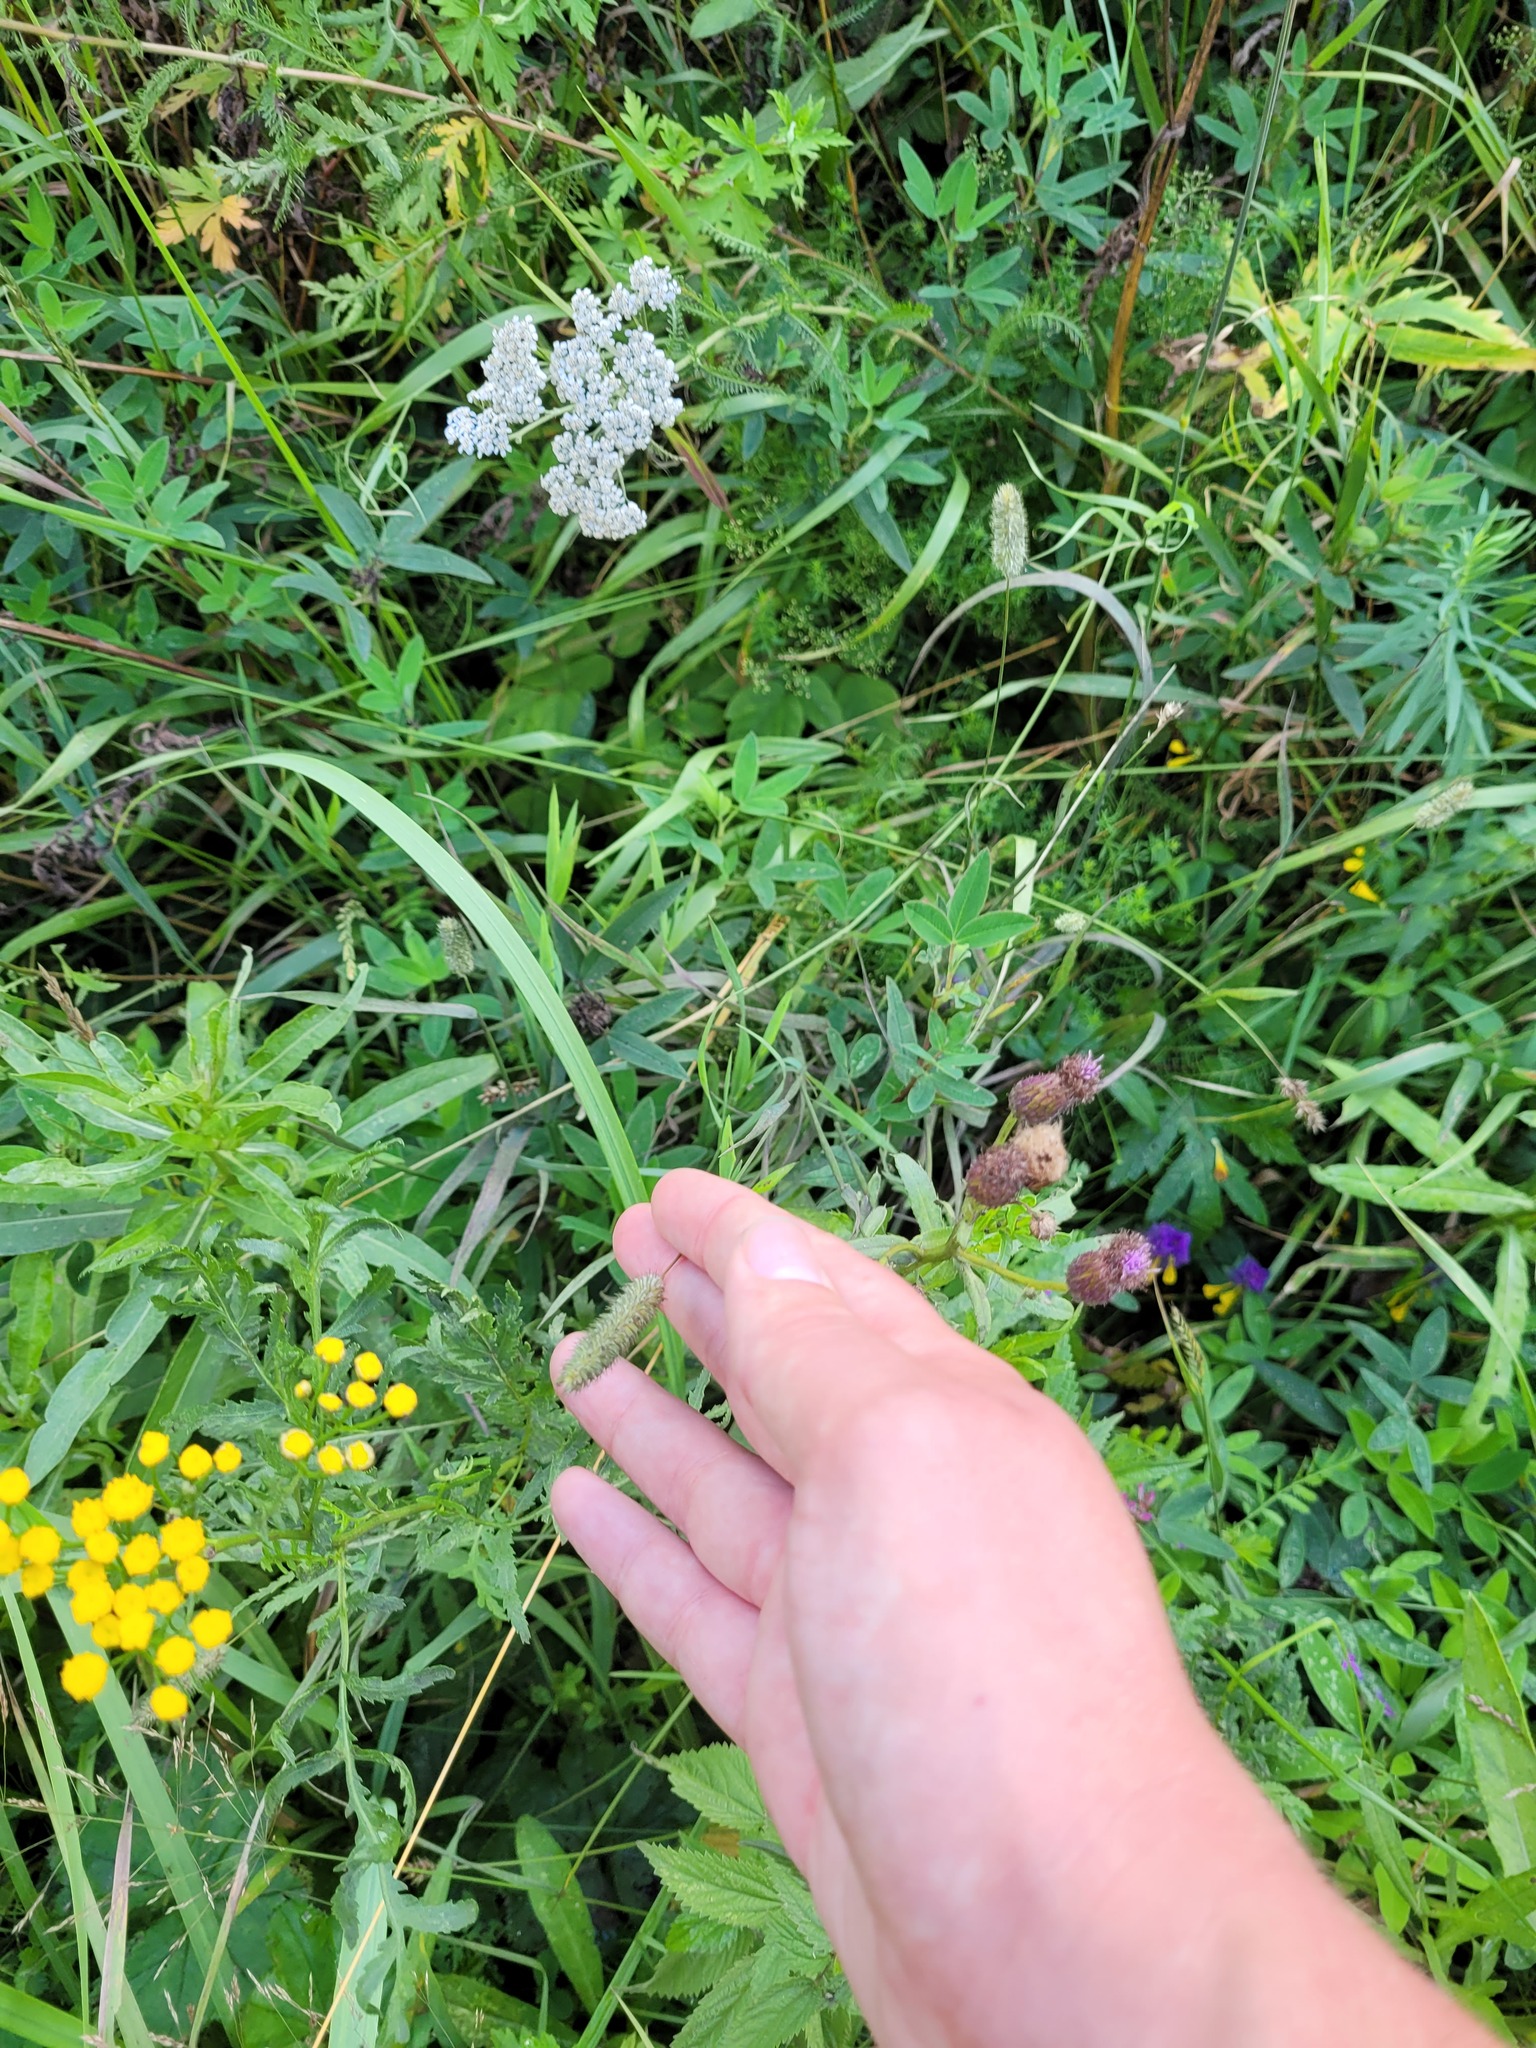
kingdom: Plantae
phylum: Tracheophyta
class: Liliopsida
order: Poales
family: Poaceae
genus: Phleum
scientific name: Phleum pratense
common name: Timothy grass
